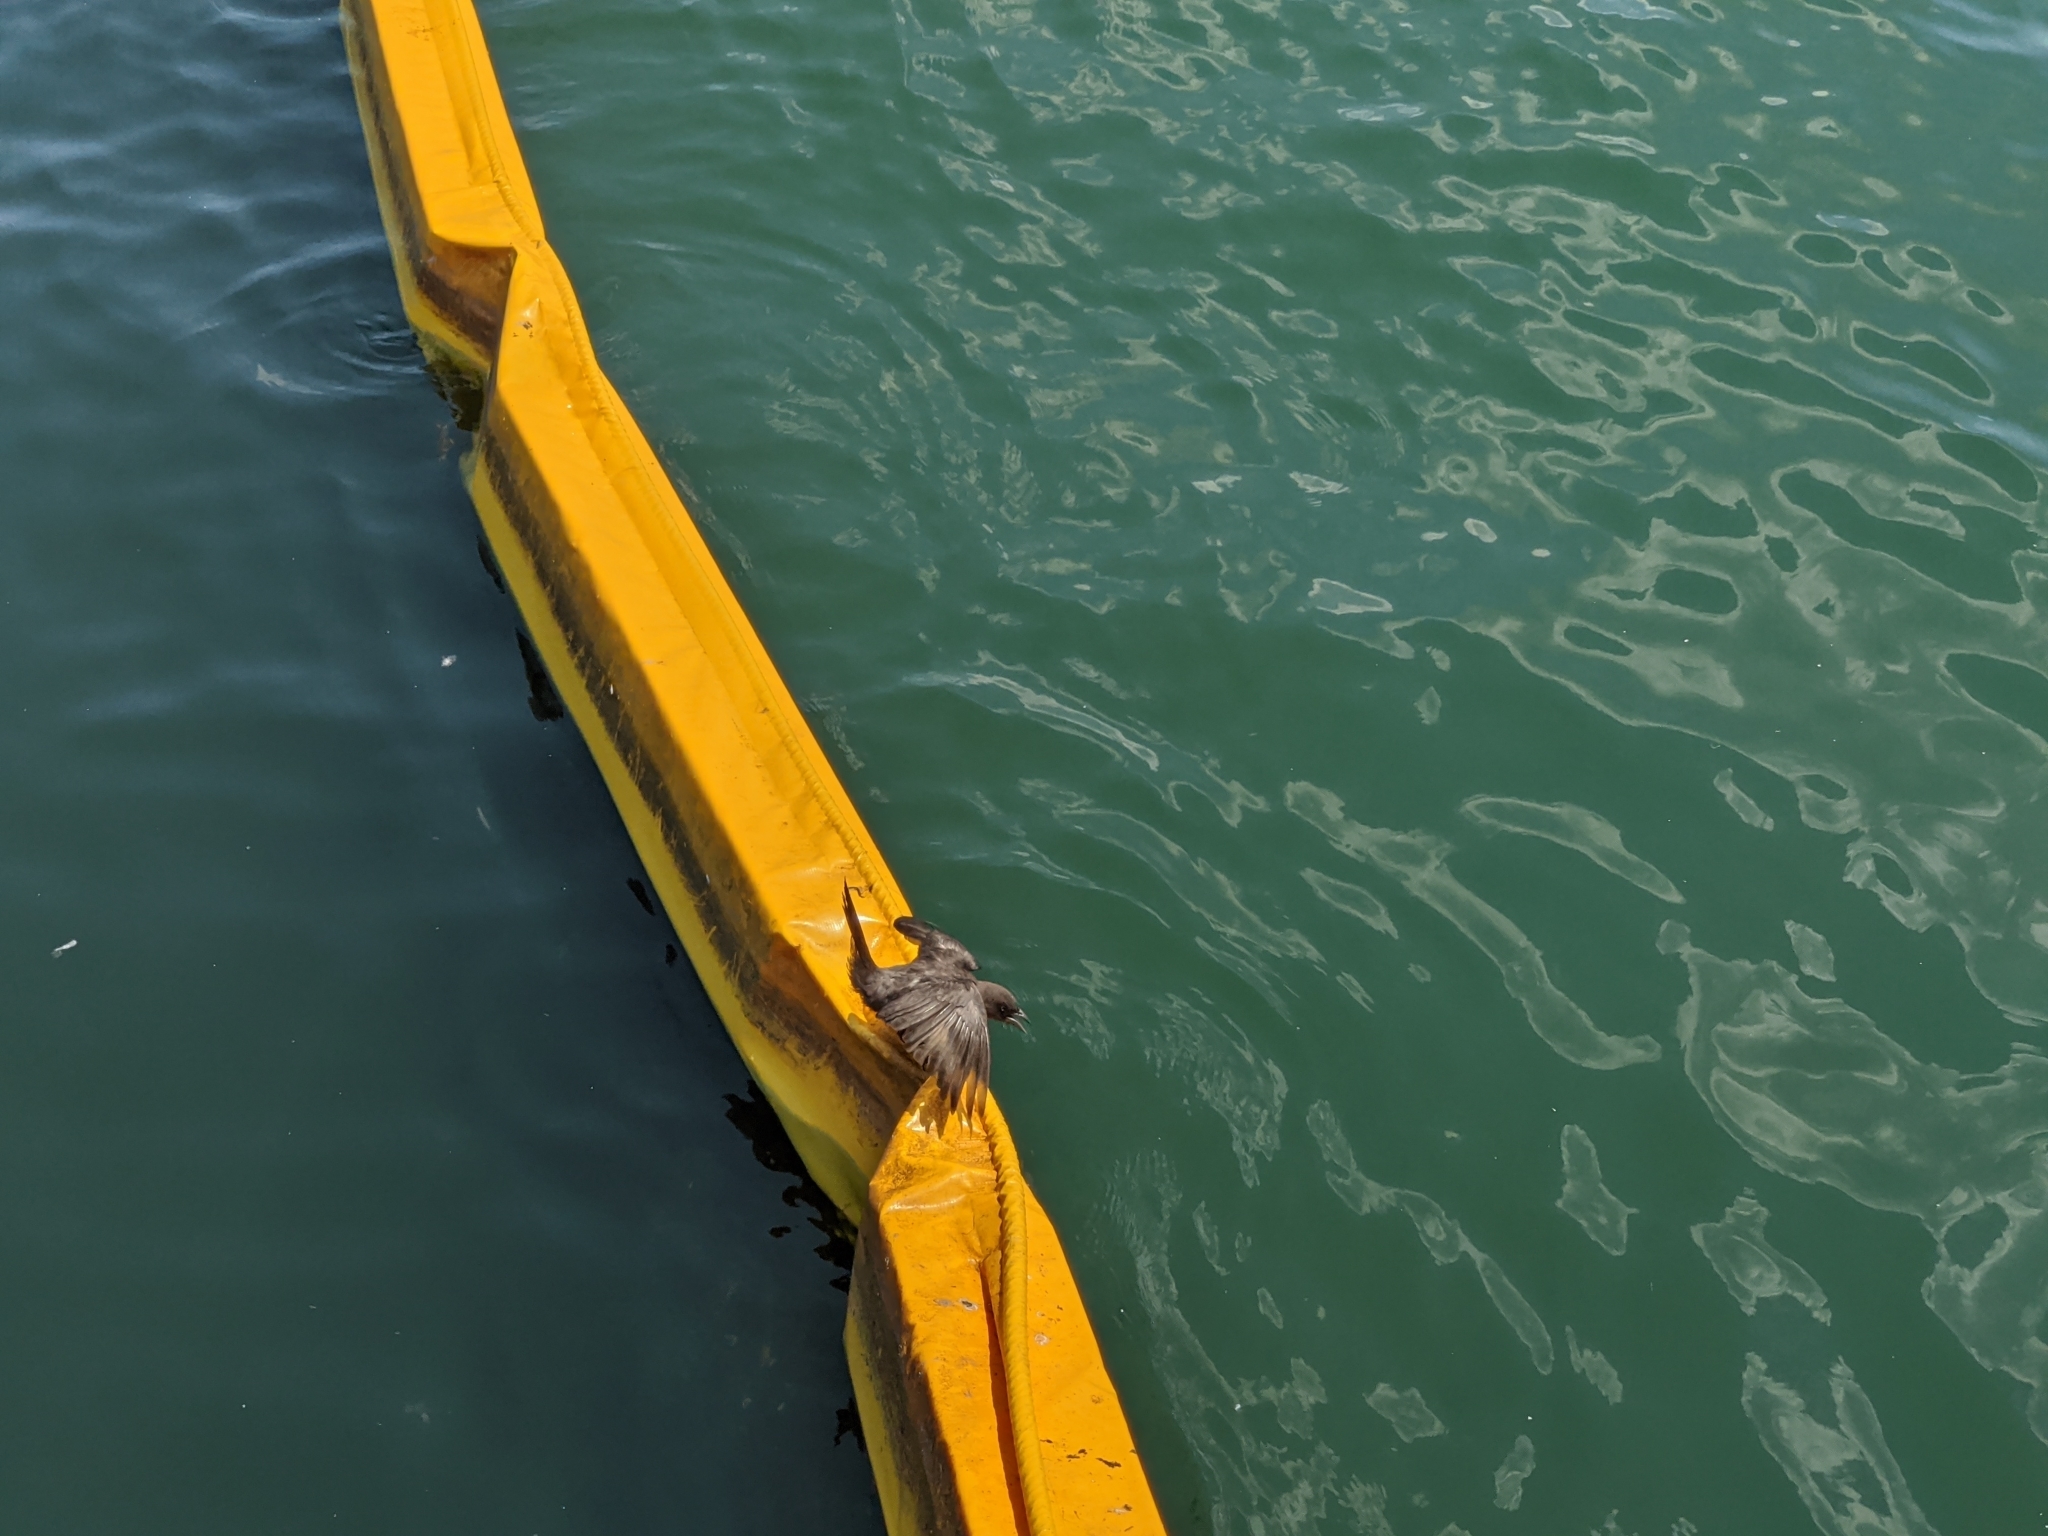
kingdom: Animalia
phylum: Chordata
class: Aves
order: Passeriformes
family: Icteridae
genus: Quiscalus
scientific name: Quiscalus quiscula
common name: Common grackle
